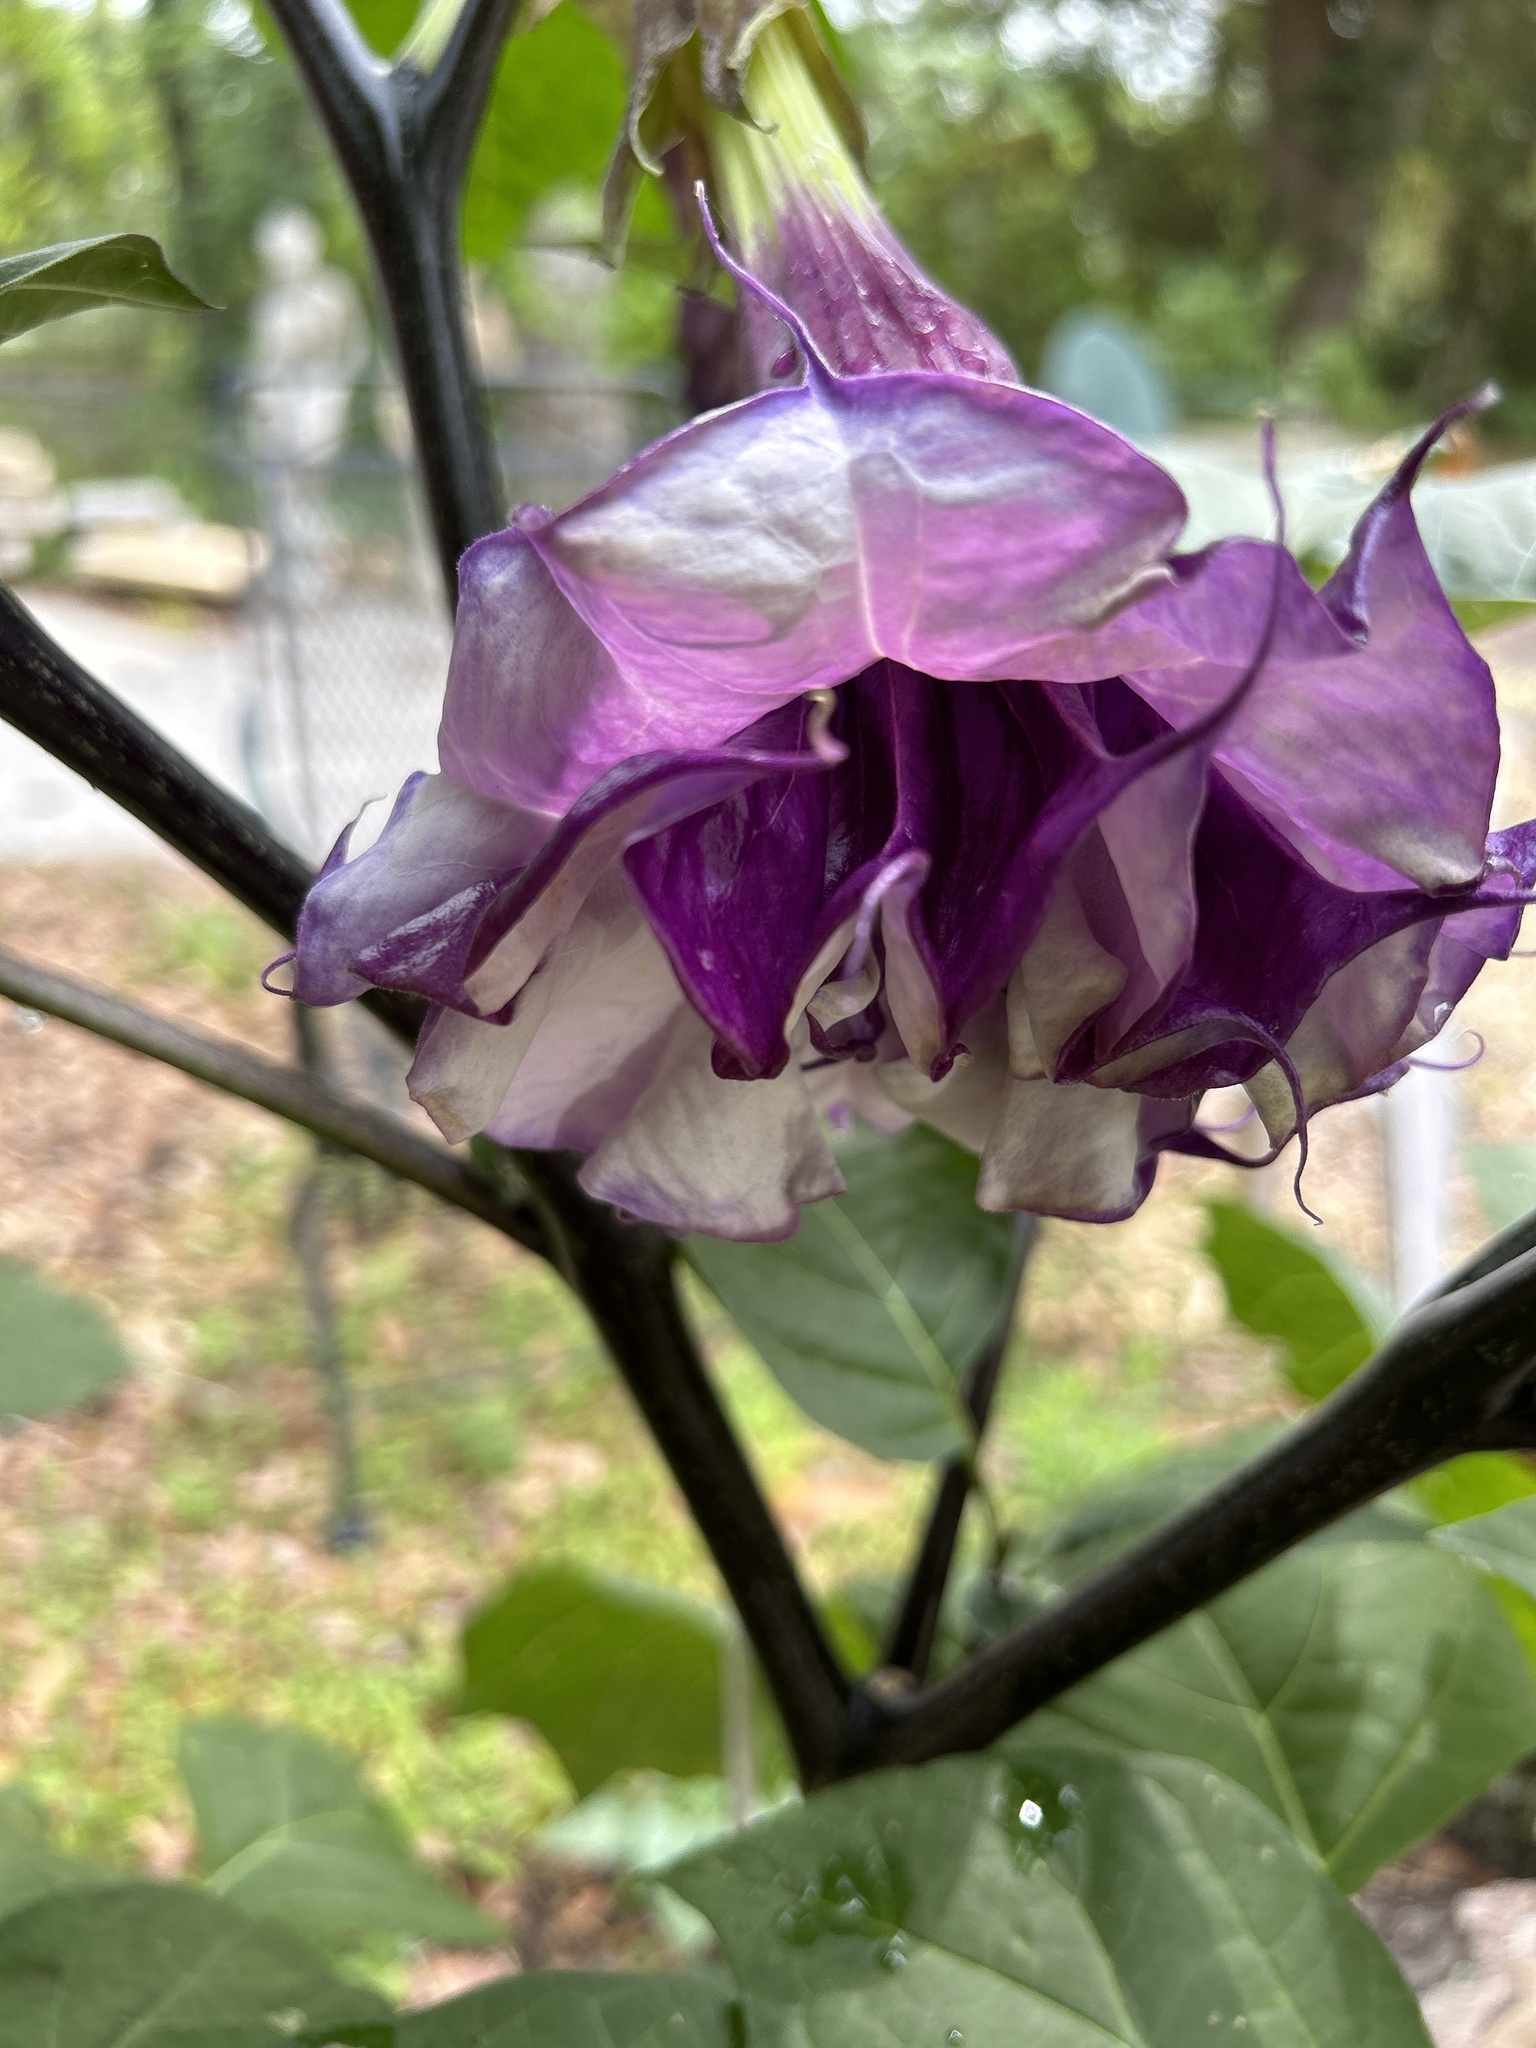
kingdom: Plantae
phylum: Tracheophyta
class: Magnoliopsida
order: Solanales
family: Solanaceae
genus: Datura
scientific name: Datura metel
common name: Jimsonweed
